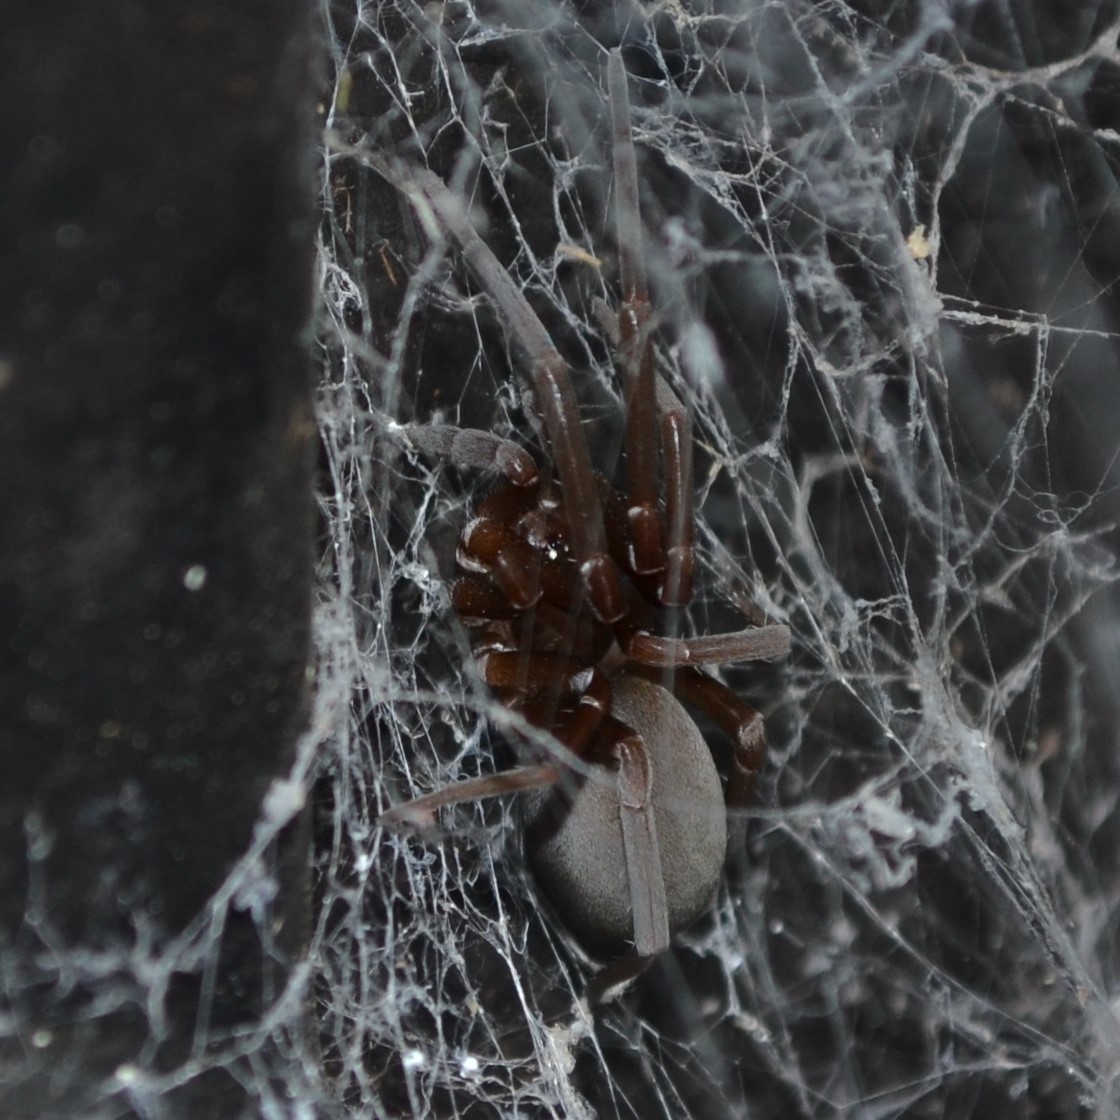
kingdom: Animalia
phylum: Arthropoda
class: Arachnida
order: Araneae
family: Filistatidae
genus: Kukulcania
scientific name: Kukulcania hibernalis
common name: Crevice weaver
